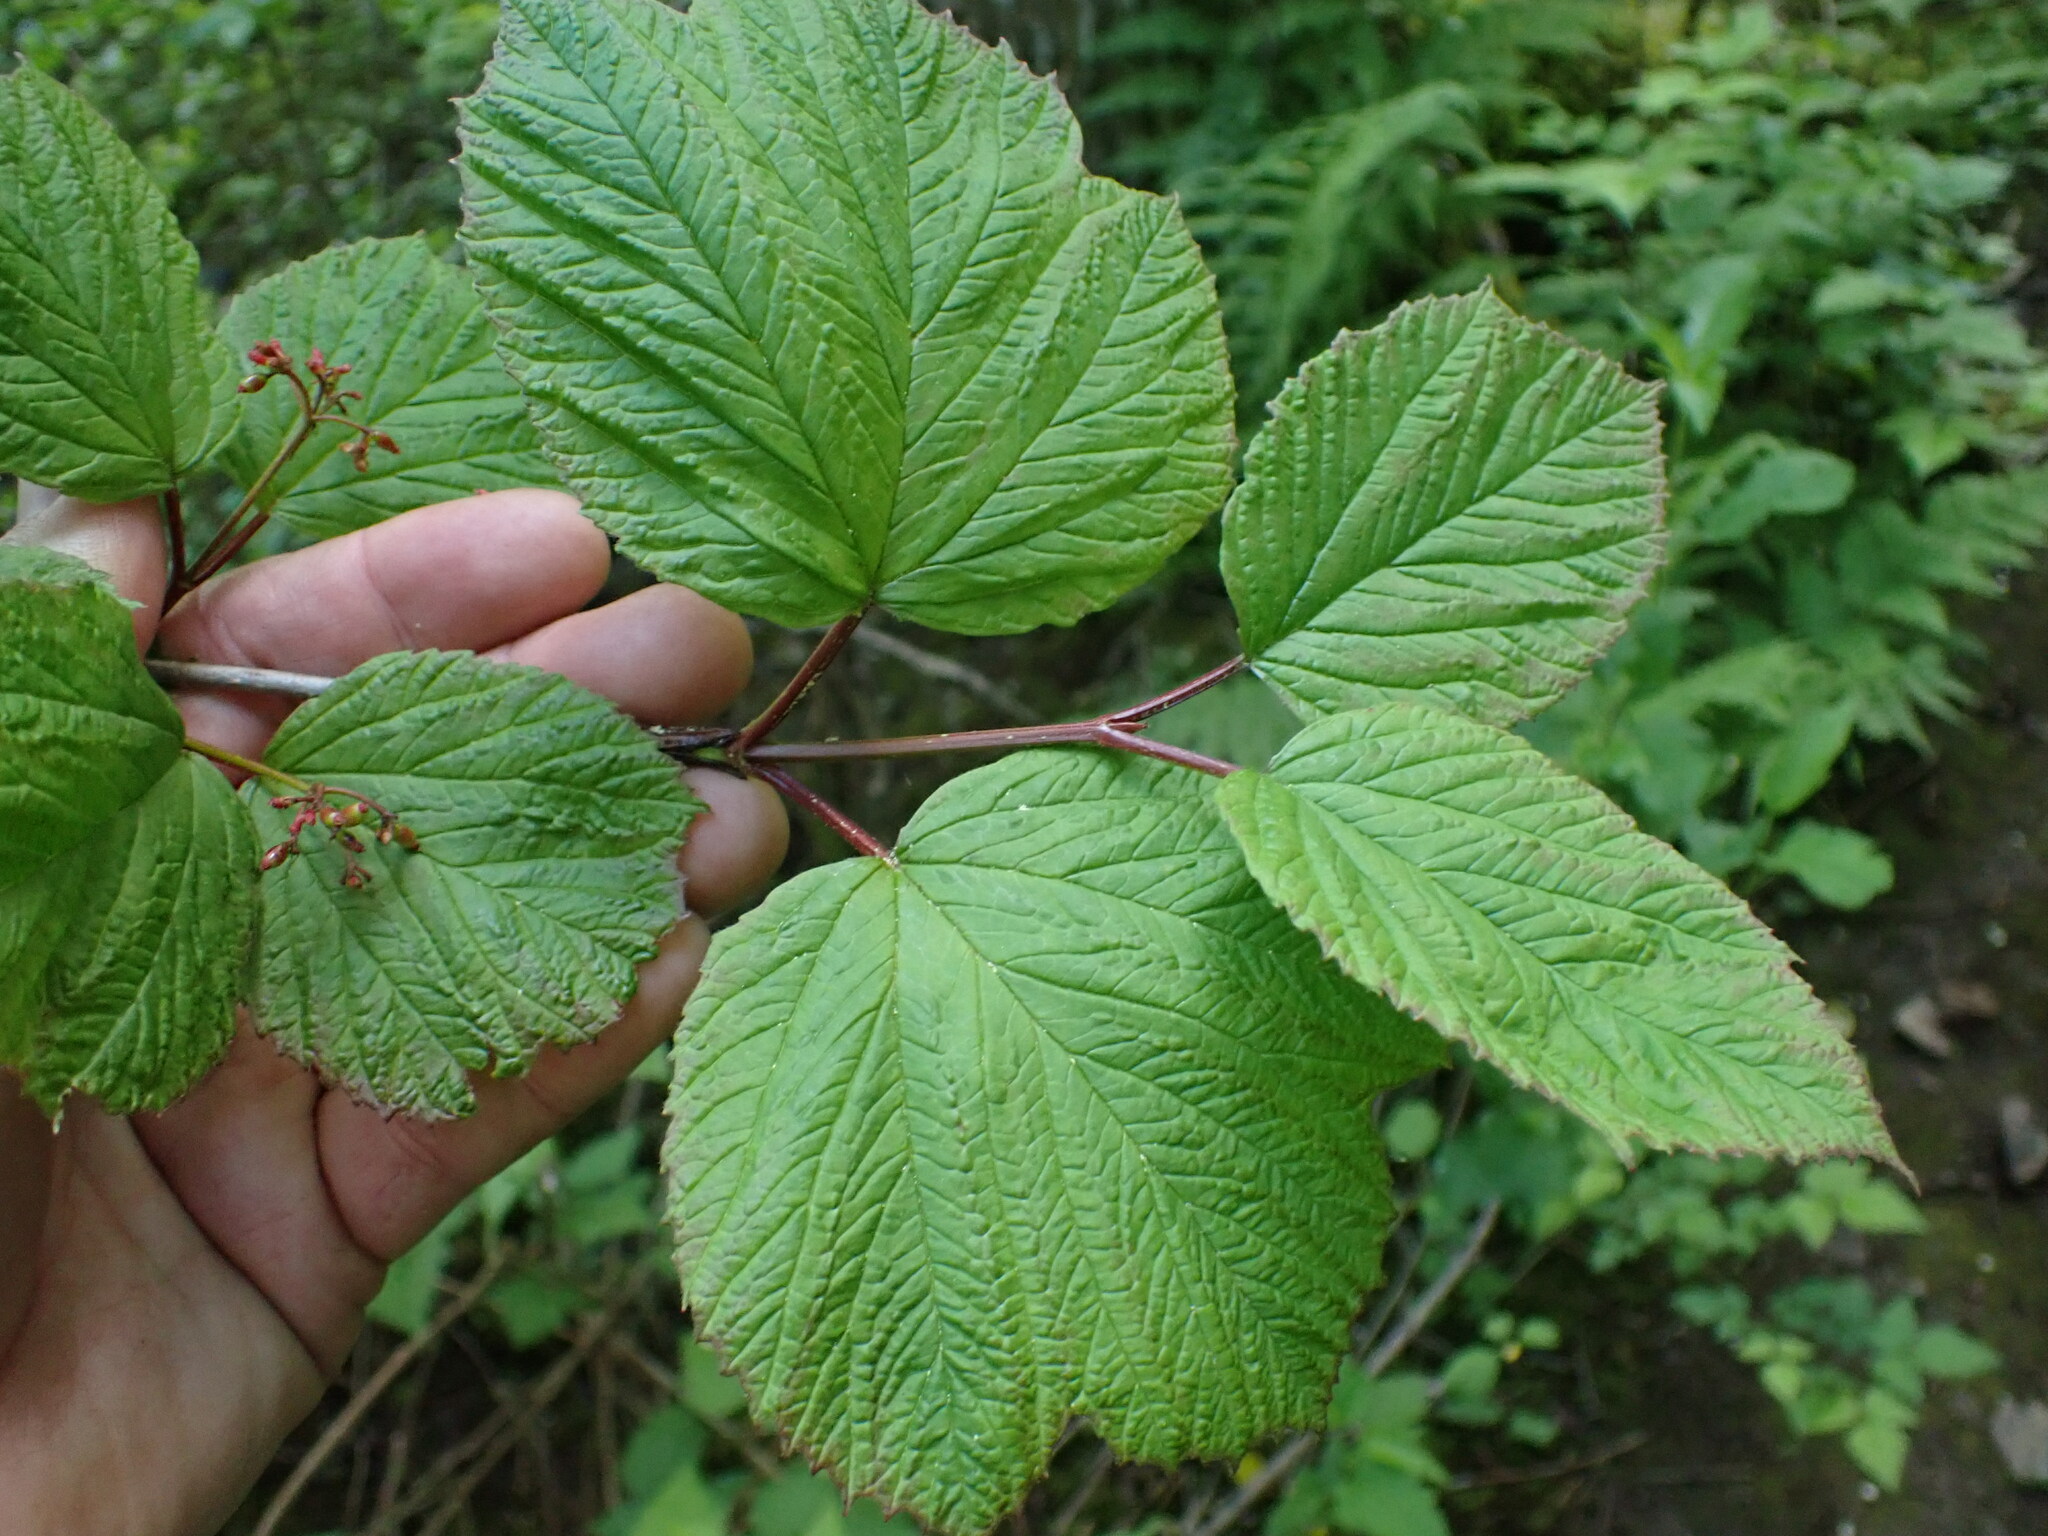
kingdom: Plantae
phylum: Tracheophyta
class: Magnoliopsida
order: Dipsacales
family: Viburnaceae
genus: Viburnum
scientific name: Viburnum edule
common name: Mooseberry
